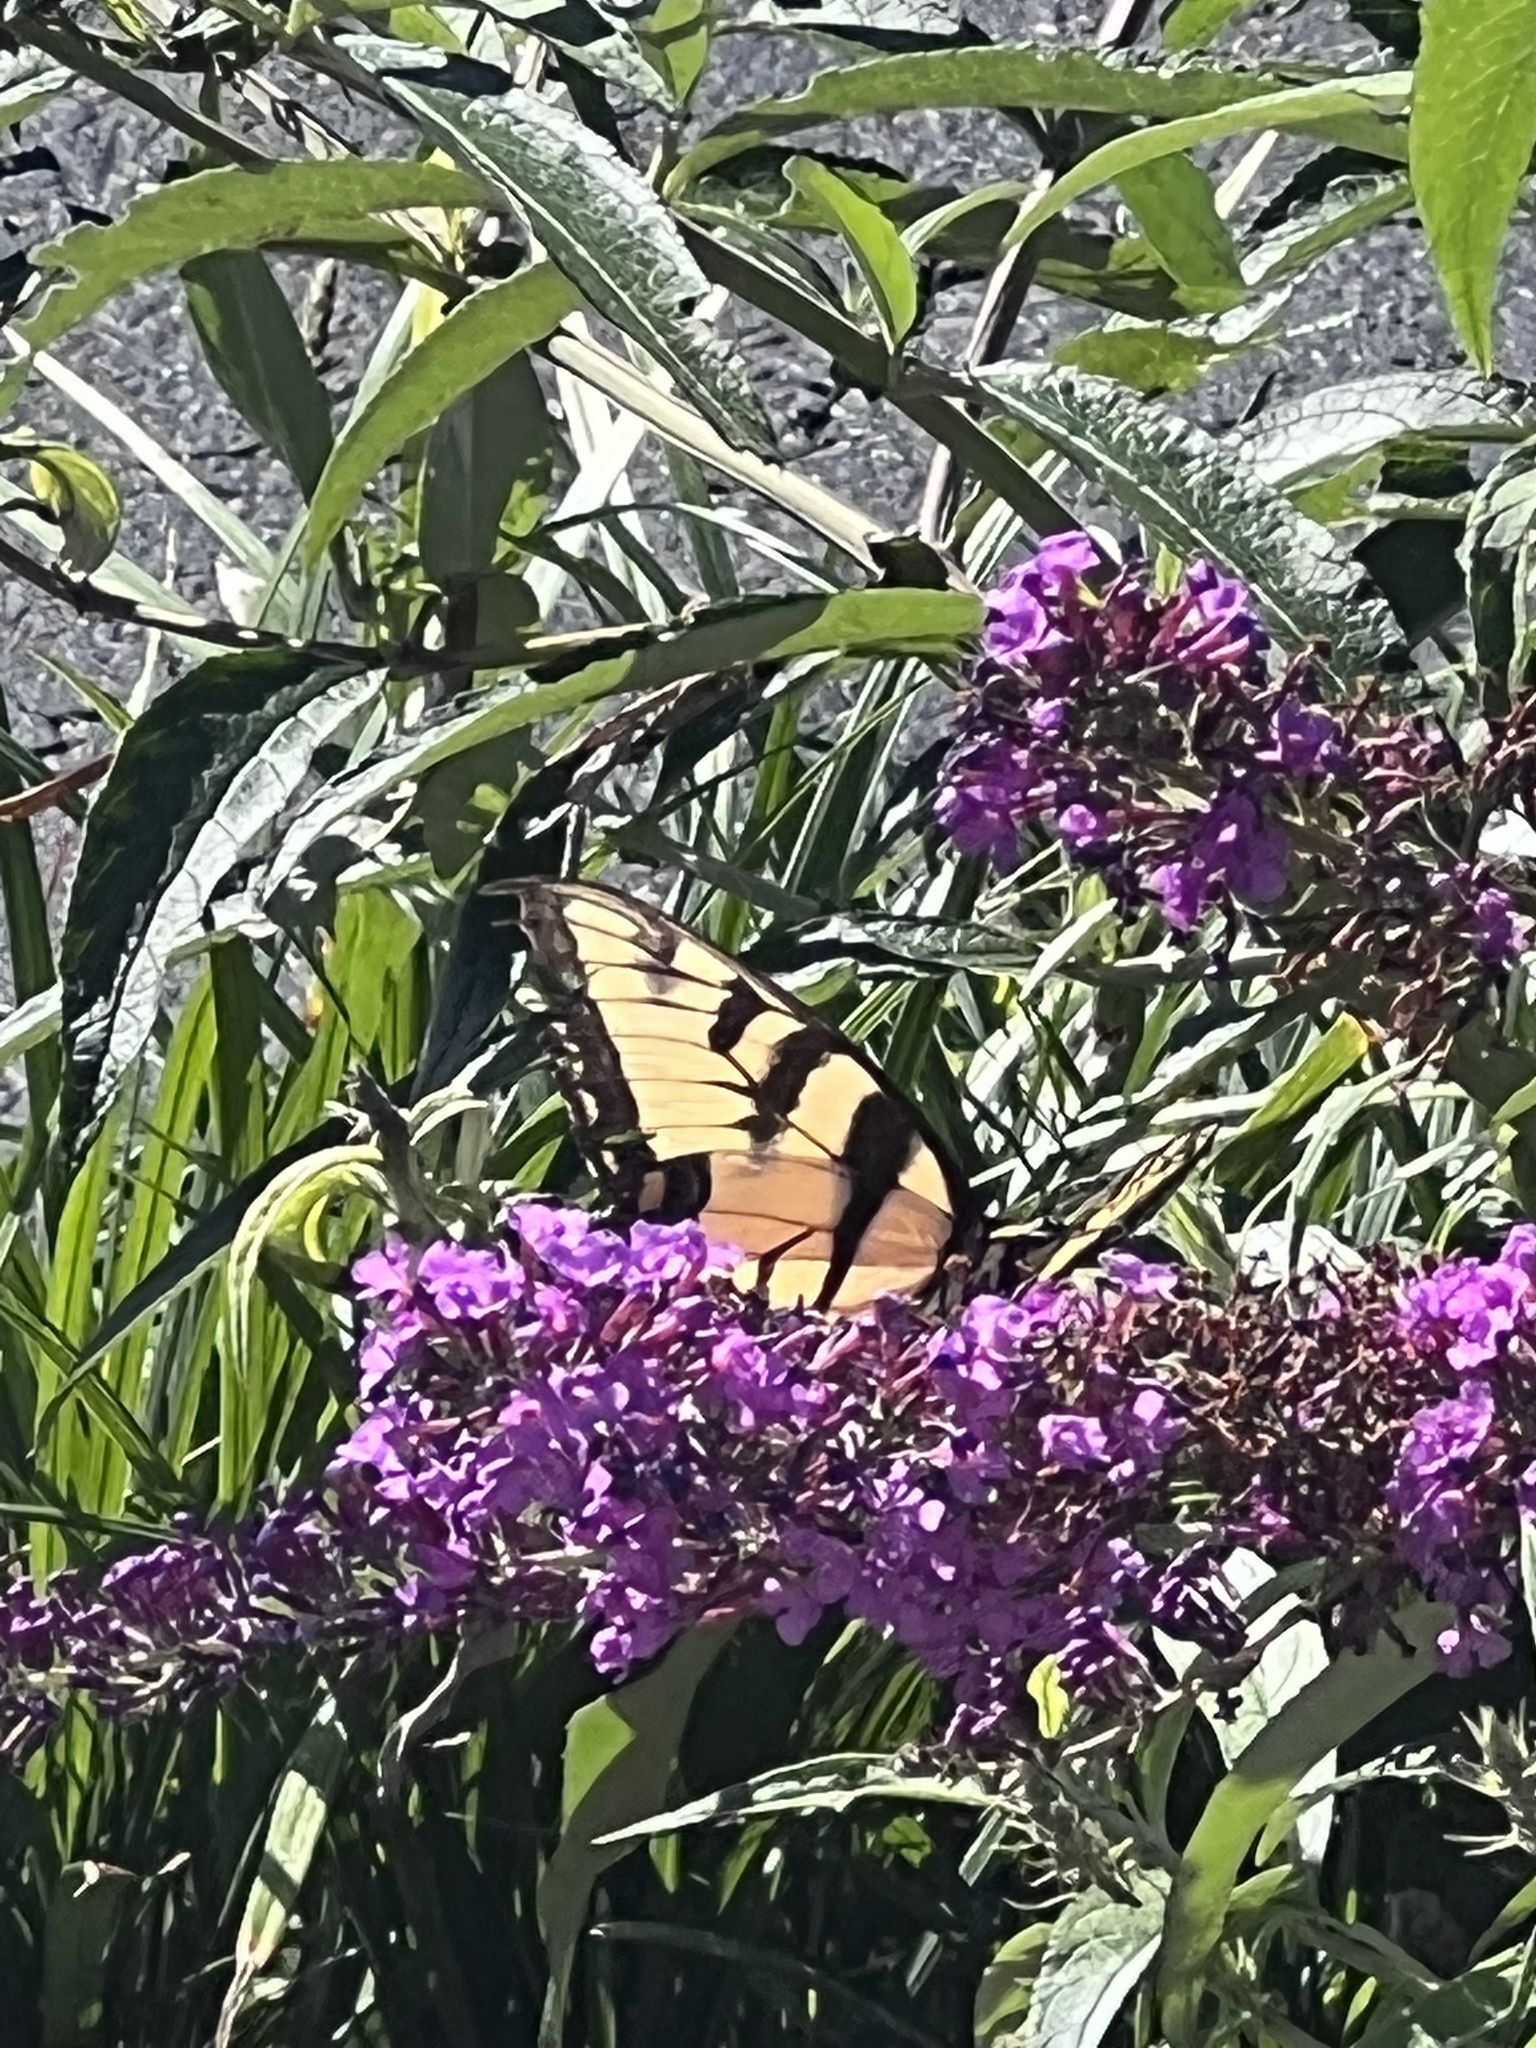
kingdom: Animalia
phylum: Arthropoda
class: Insecta
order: Lepidoptera
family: Papilionidae
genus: Papilio
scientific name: Papilio glaucus
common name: Tiger swallowtail
